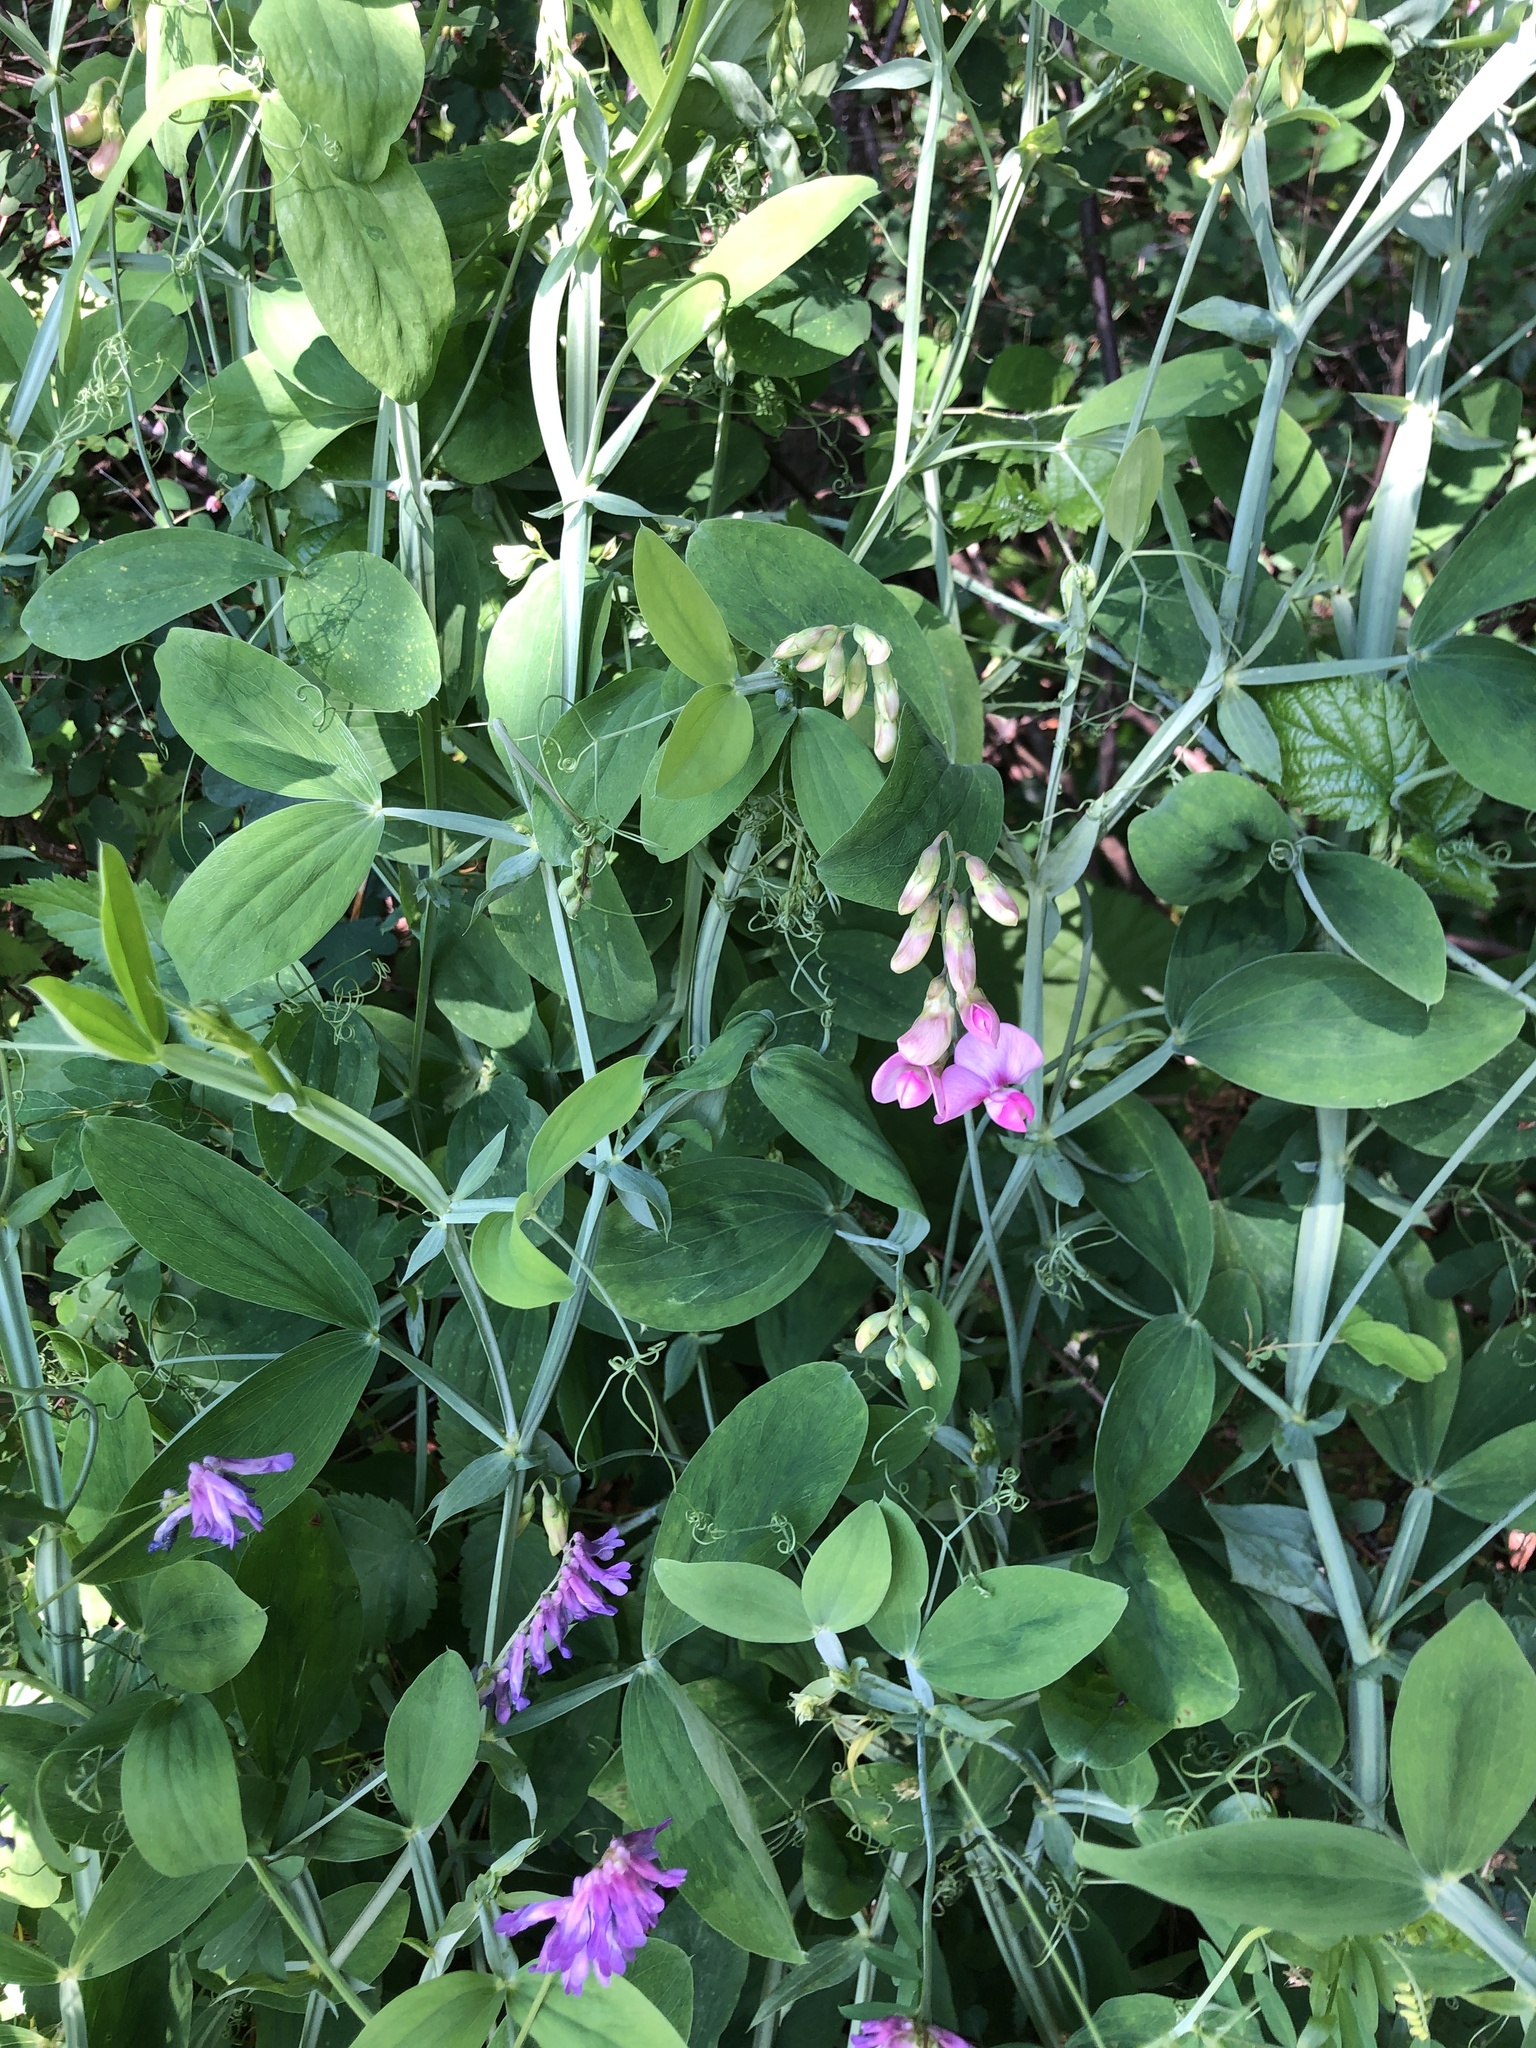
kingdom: Plantae
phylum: Tracheophyta
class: Magnoliopsida
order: Fabales
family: Fabaceae
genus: Lathyrus
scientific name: Lathyrus latifolius
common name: Perennial pea
